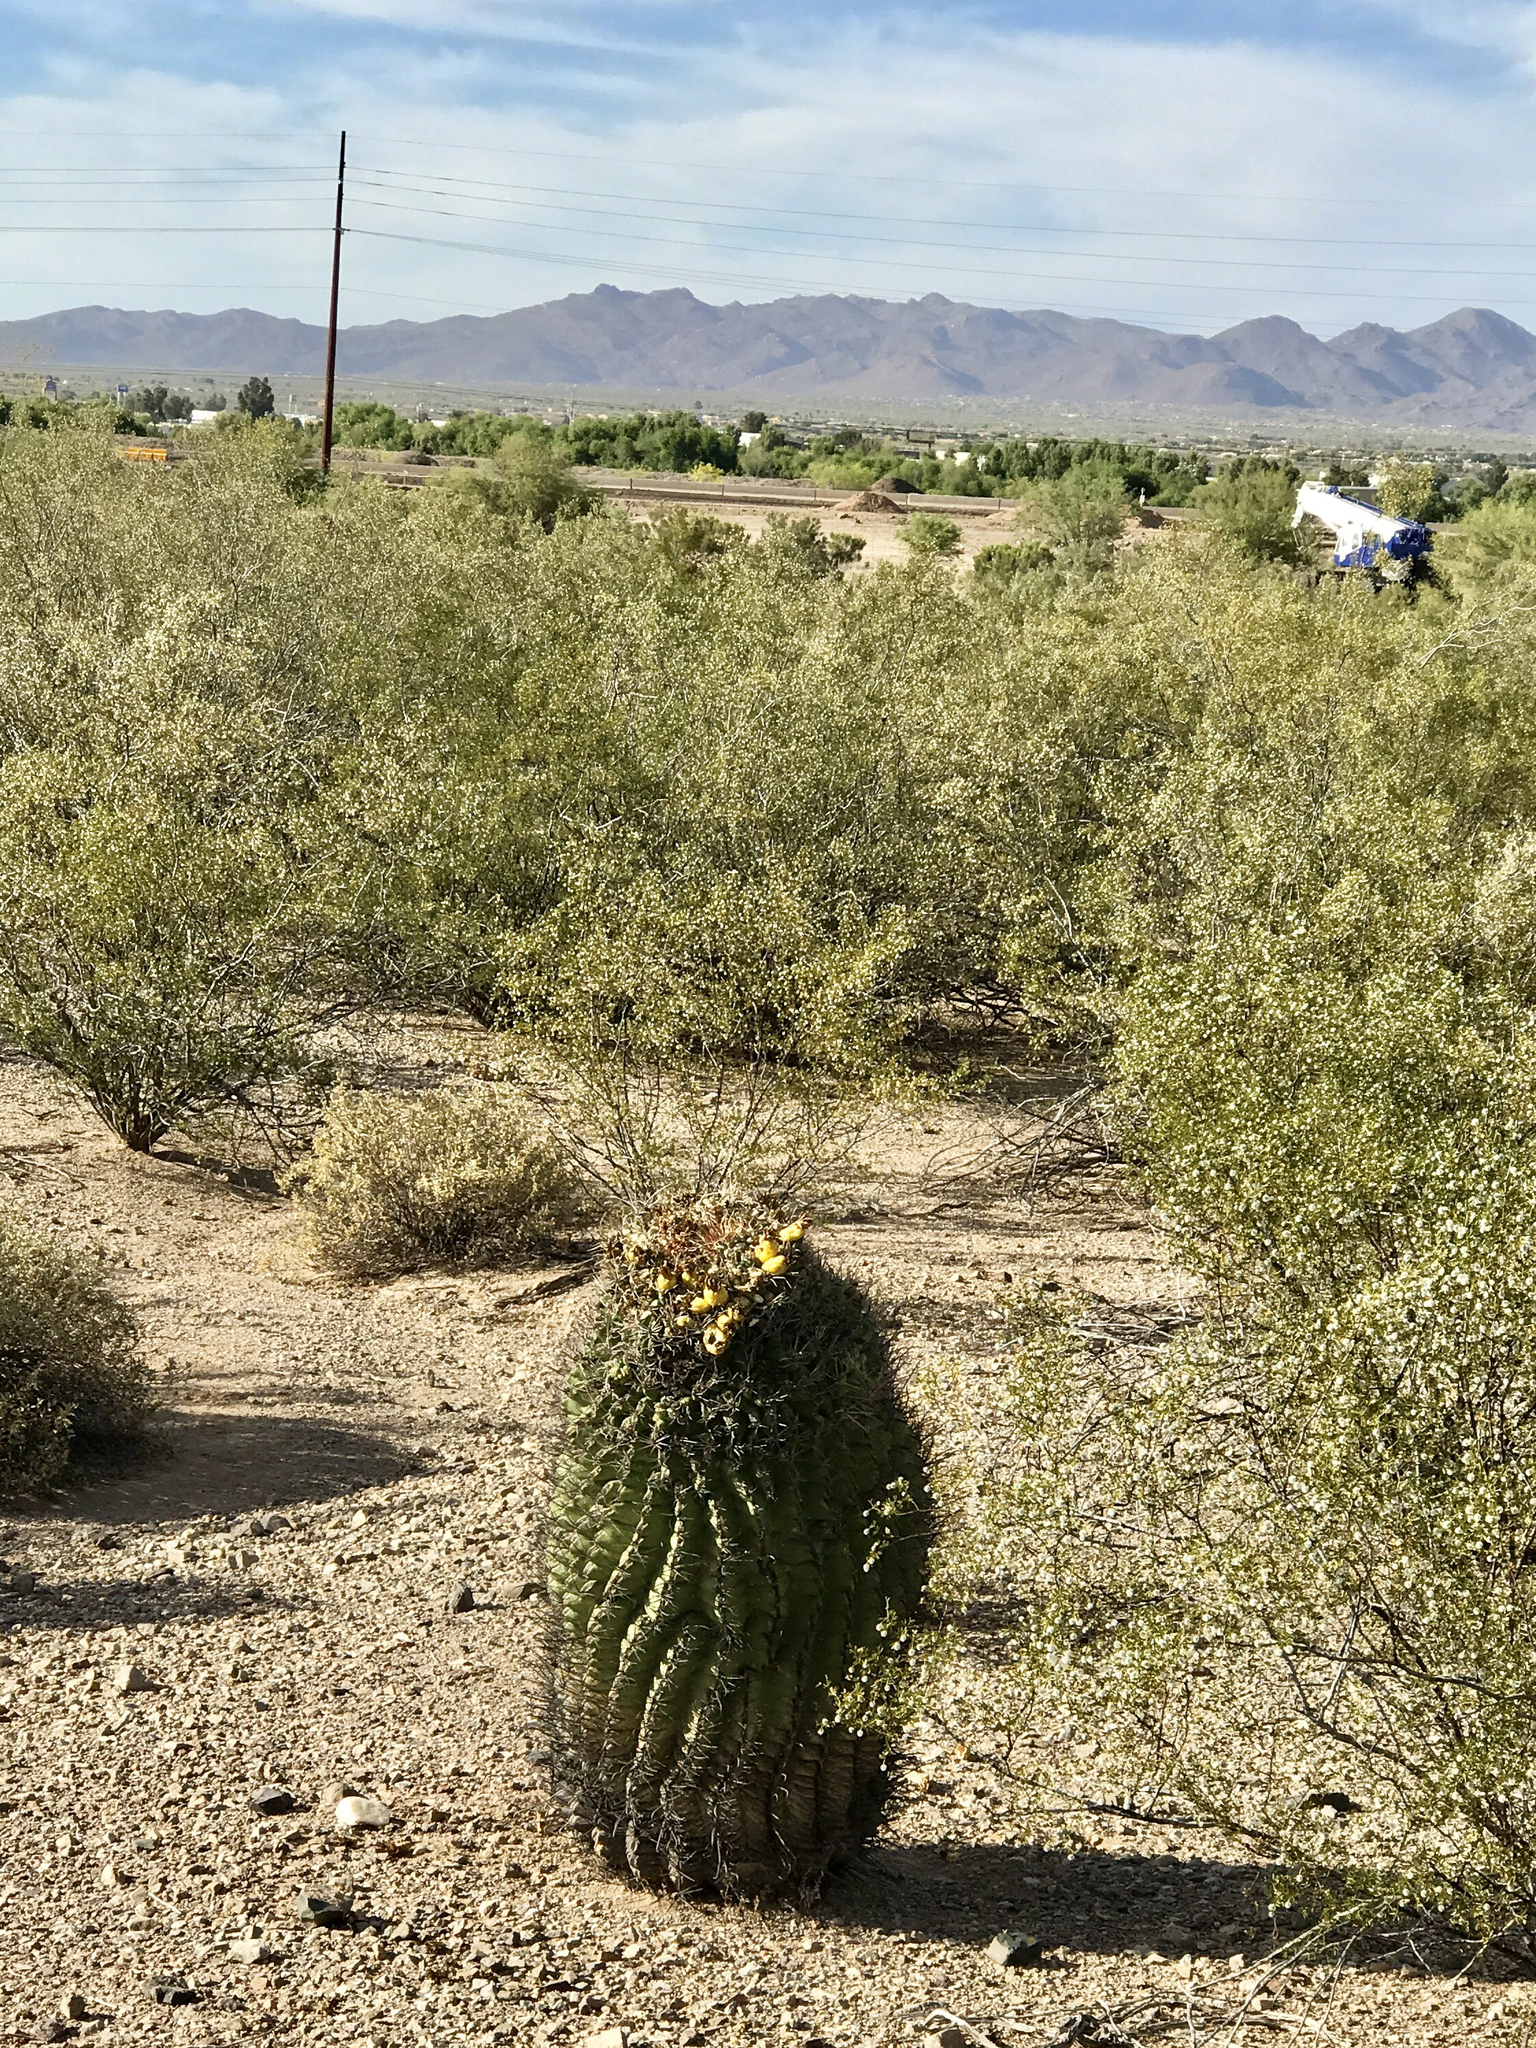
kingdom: Plantae
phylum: Tracheophyta
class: Magnoliopsida
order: Caryophyllales
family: Cactaceae
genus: Ferocactus
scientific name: Ferocactus wislizeni
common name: Candy barrel cactus
